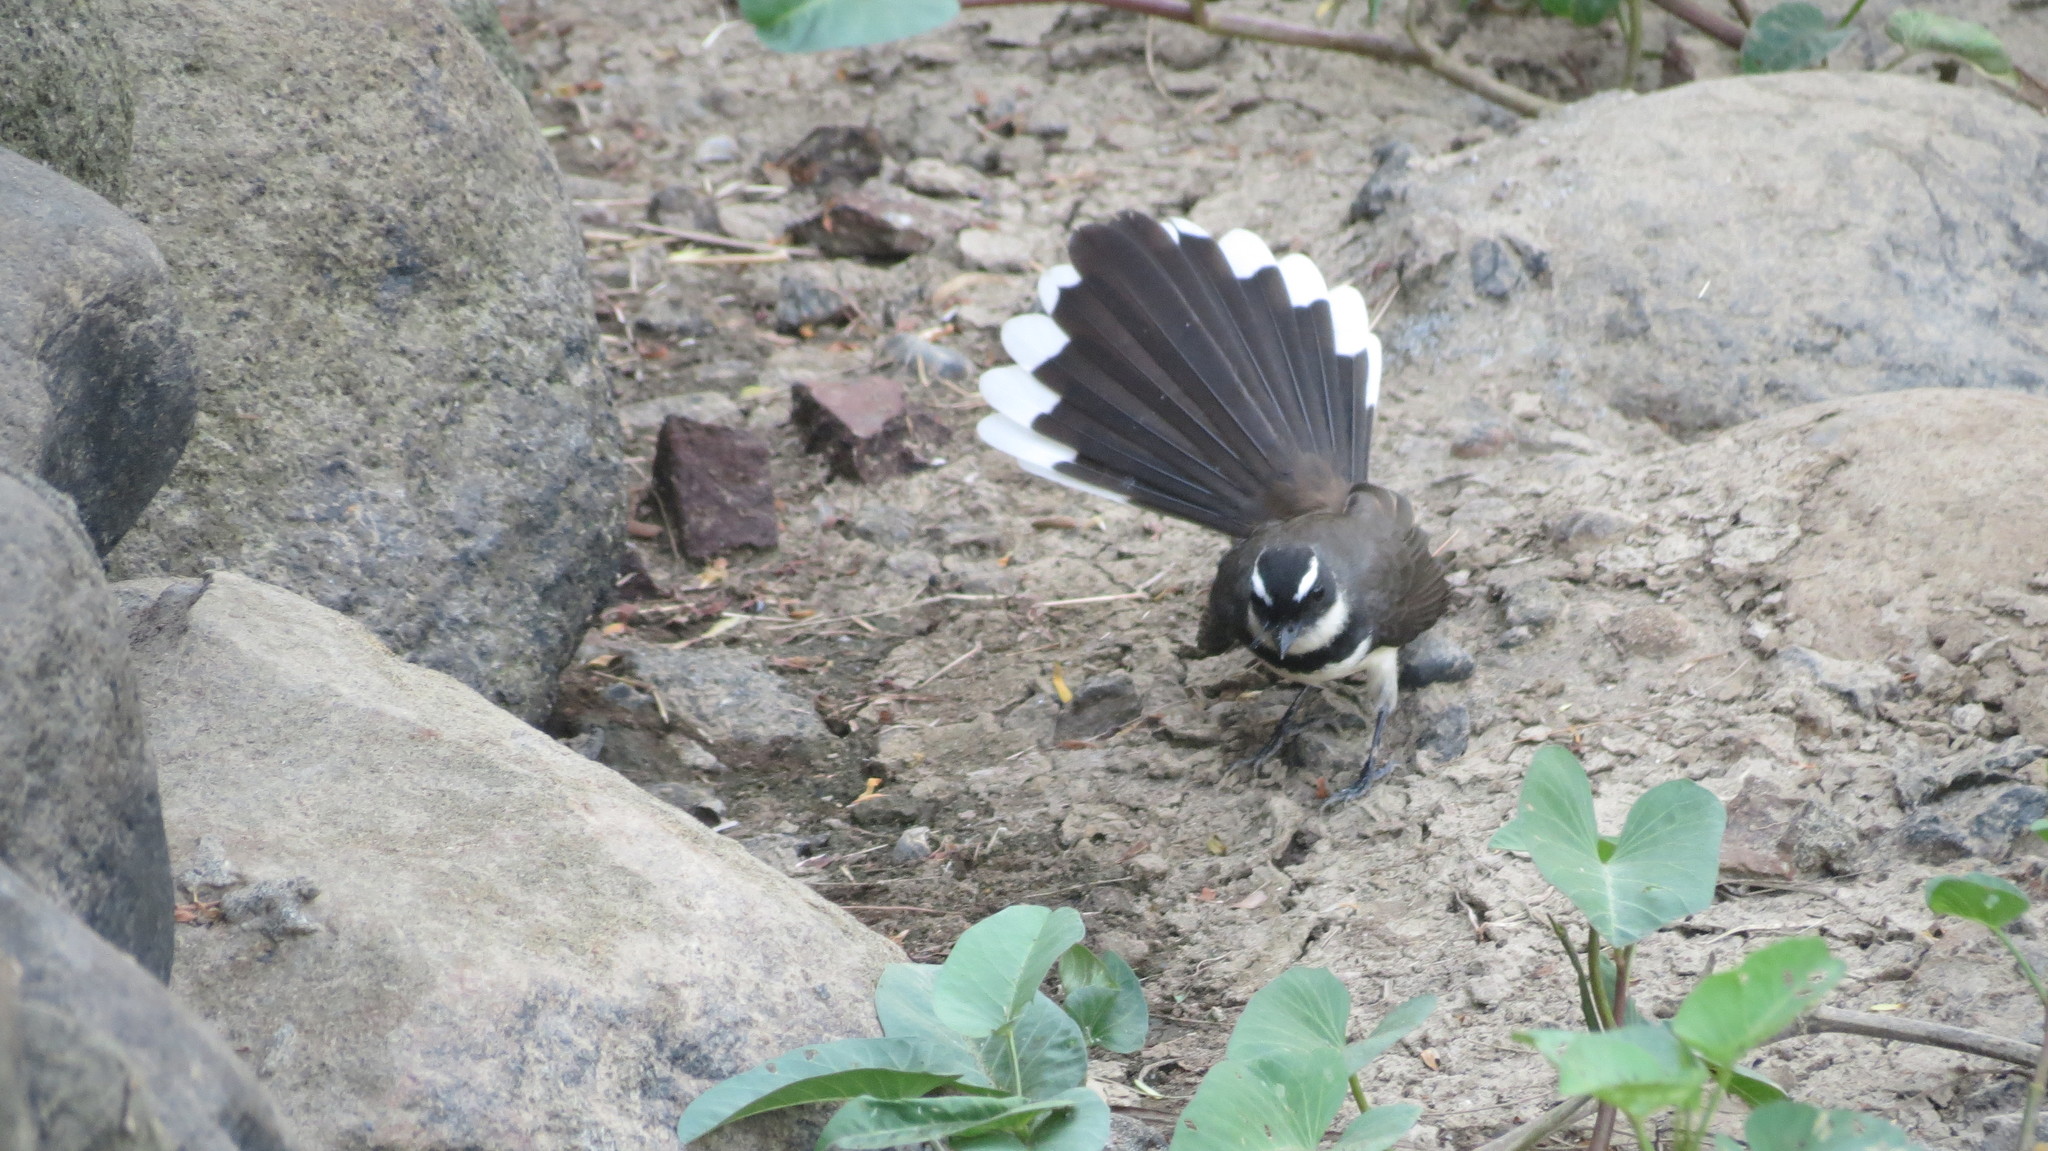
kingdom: Animalia
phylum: Chordata
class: Aves
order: Passeriformes
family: Rhipiduridae
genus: Rhipidura
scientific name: Rhipidura nigritorquis
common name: Philippine pied fantail
